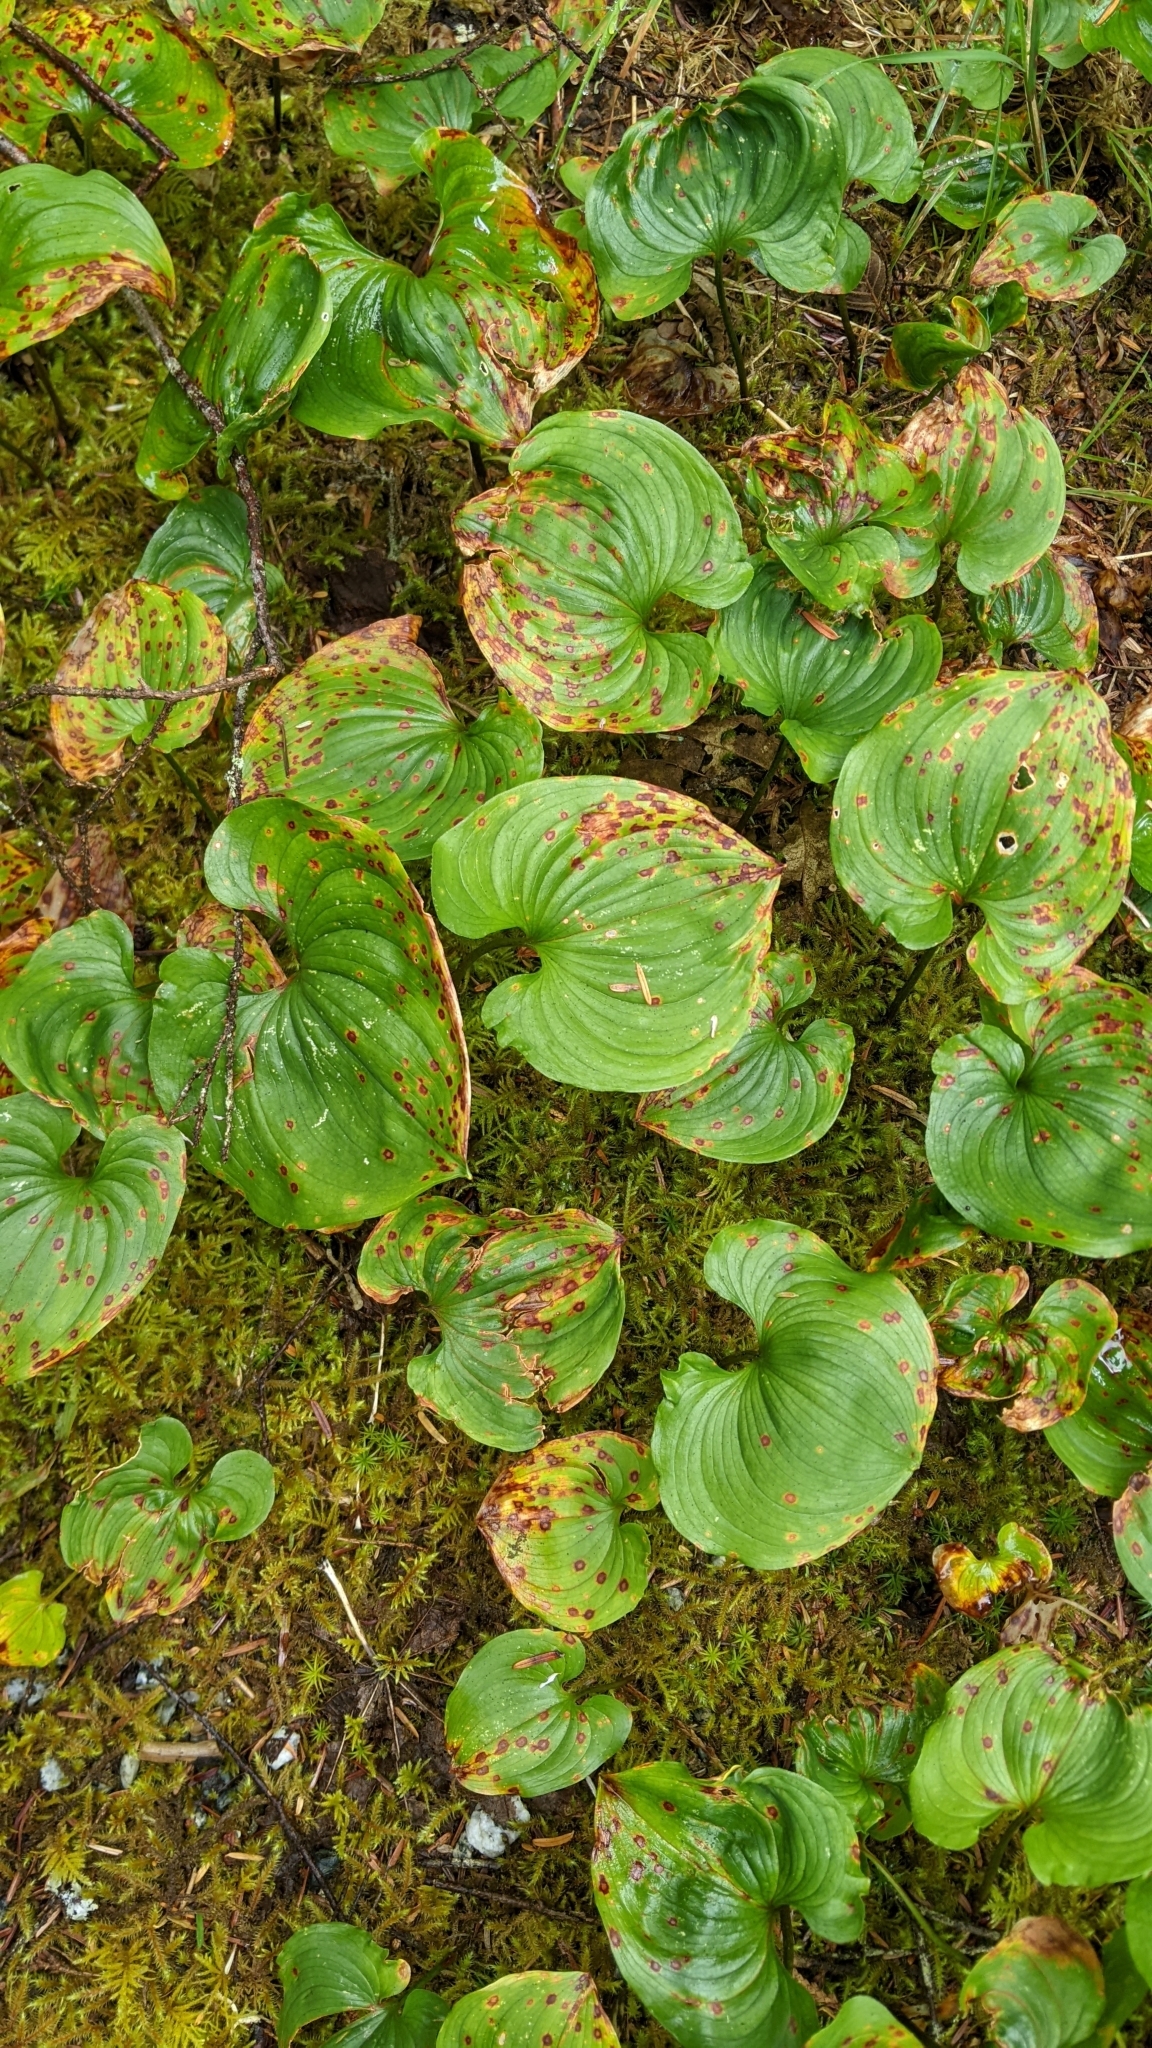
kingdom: Plantae
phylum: Tracheophyta
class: Liliopsida
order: Asparagales
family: Asparagaceae
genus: Maianthemum
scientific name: Maianthemum dilatatum
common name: False lily-of-the-valley
